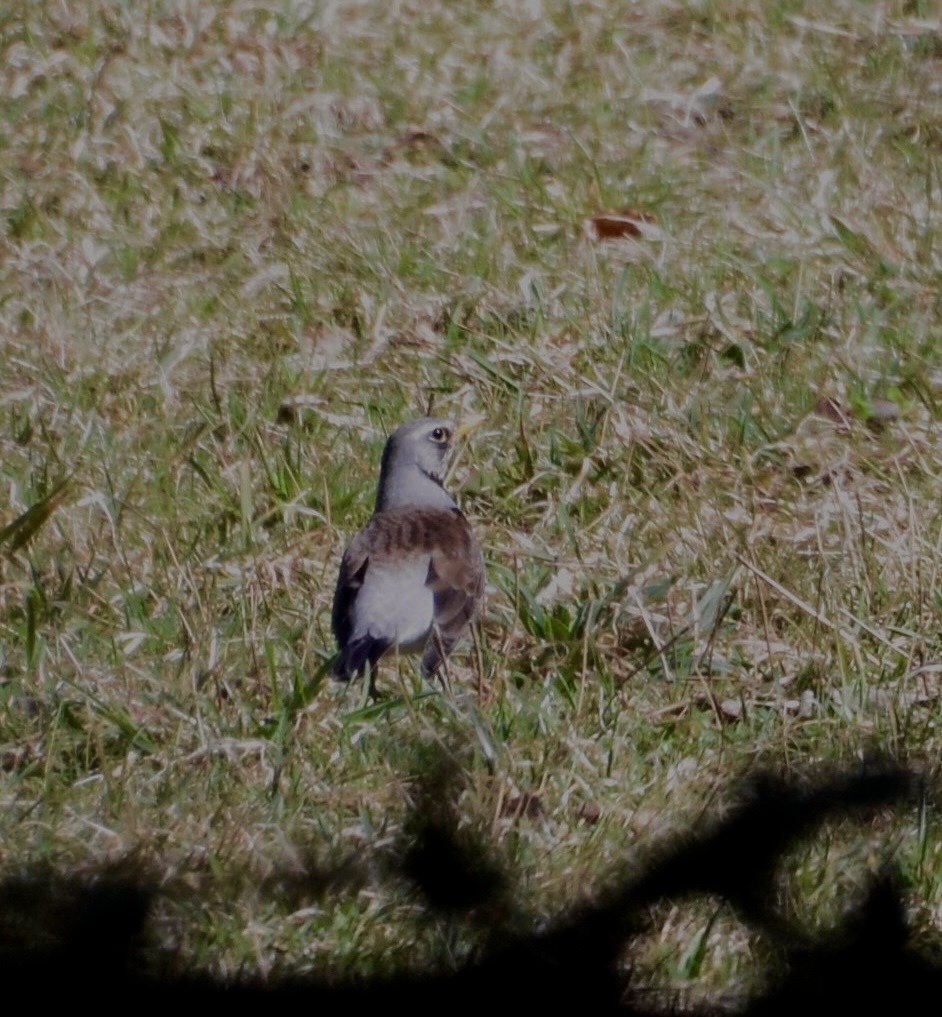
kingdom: Animalia
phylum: Chordata
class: Aves
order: Passeriformes
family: Turdidae
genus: Turdus
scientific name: Turdus pilaris
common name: Fieldfare
